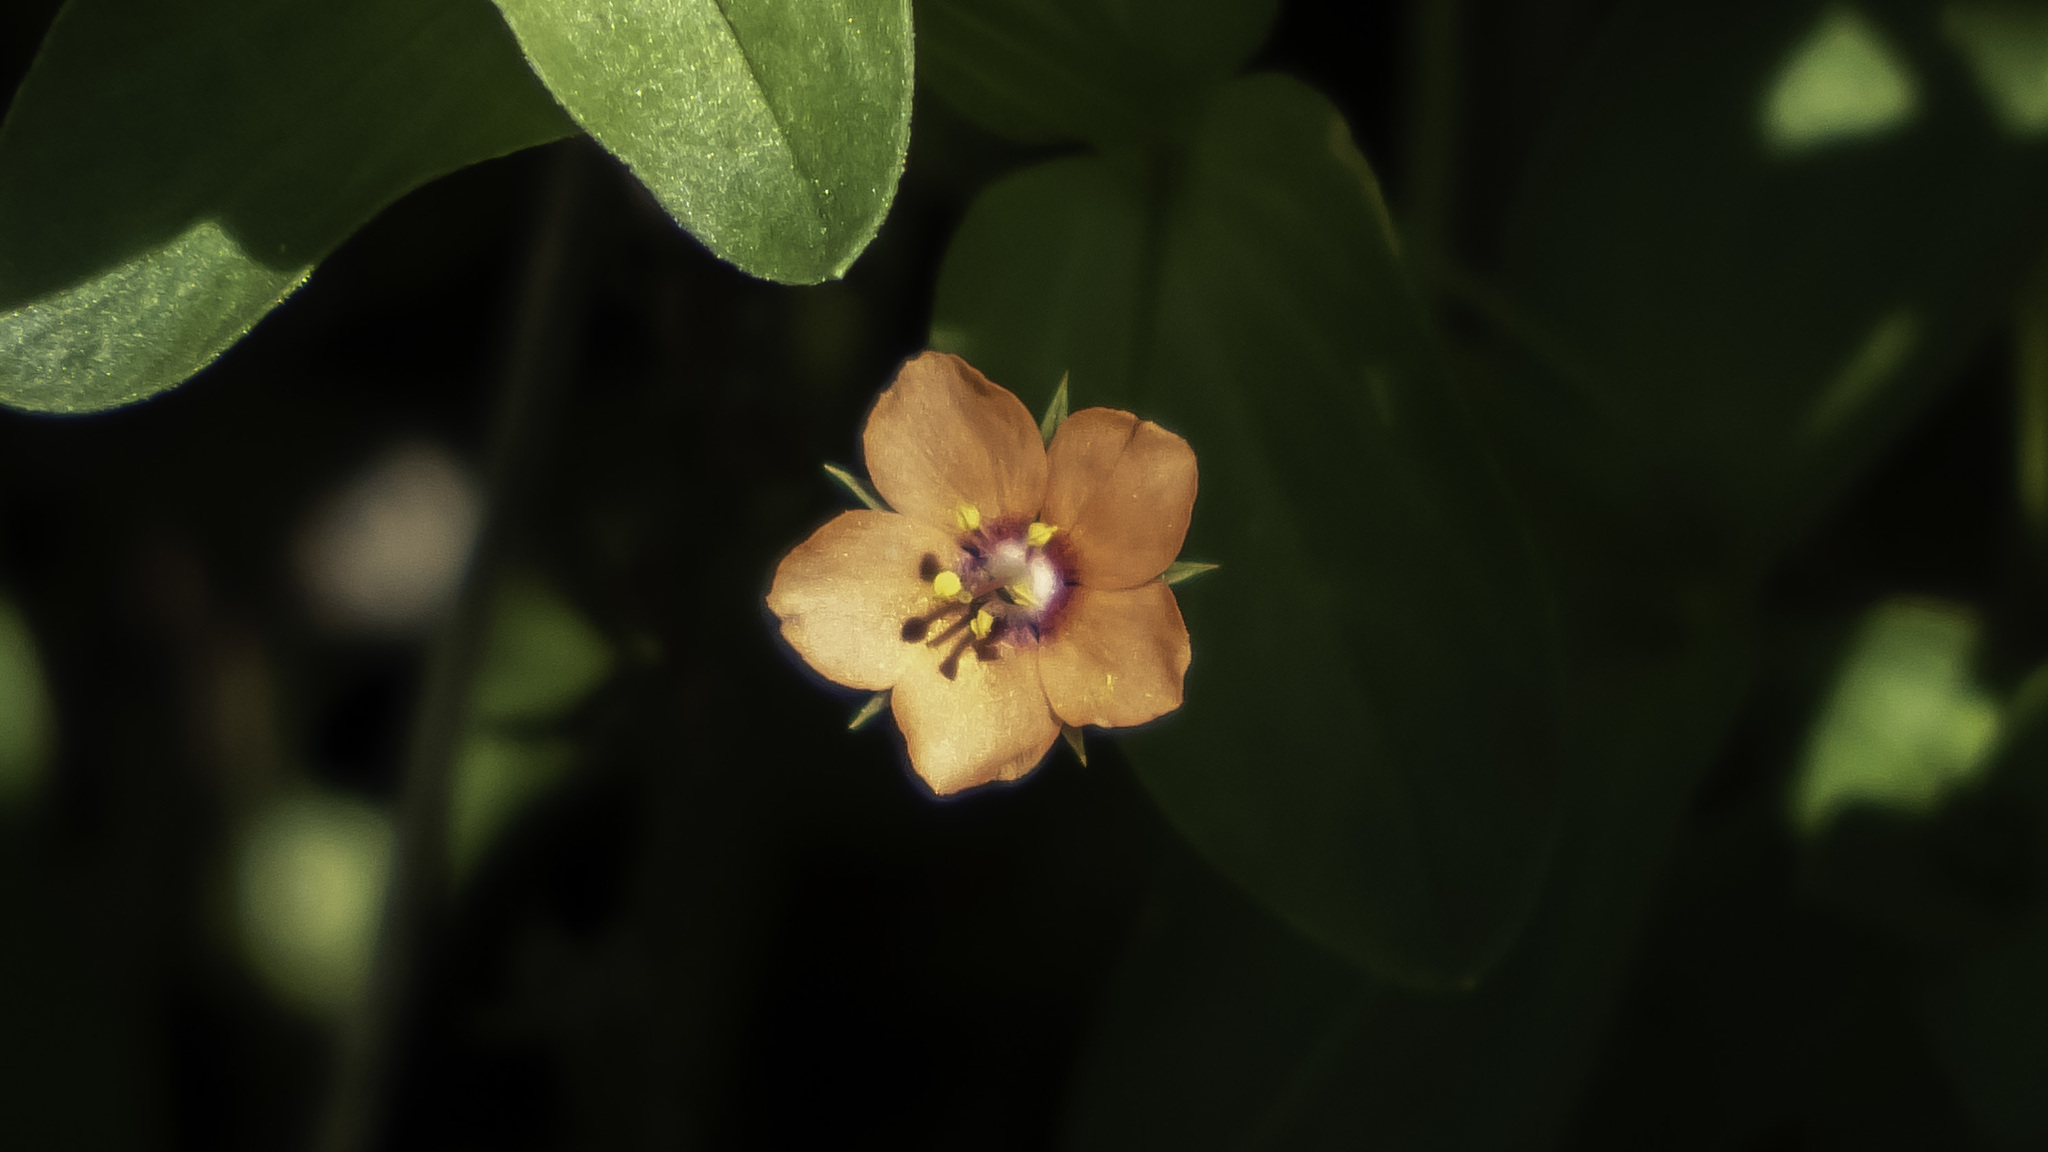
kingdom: Plantae
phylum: Tracheophyta
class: Magnoliopsida
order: Ericales
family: Primulaceae
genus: Lysimachia
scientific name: Lysimachia arvensis
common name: Scarlet pimpernel
